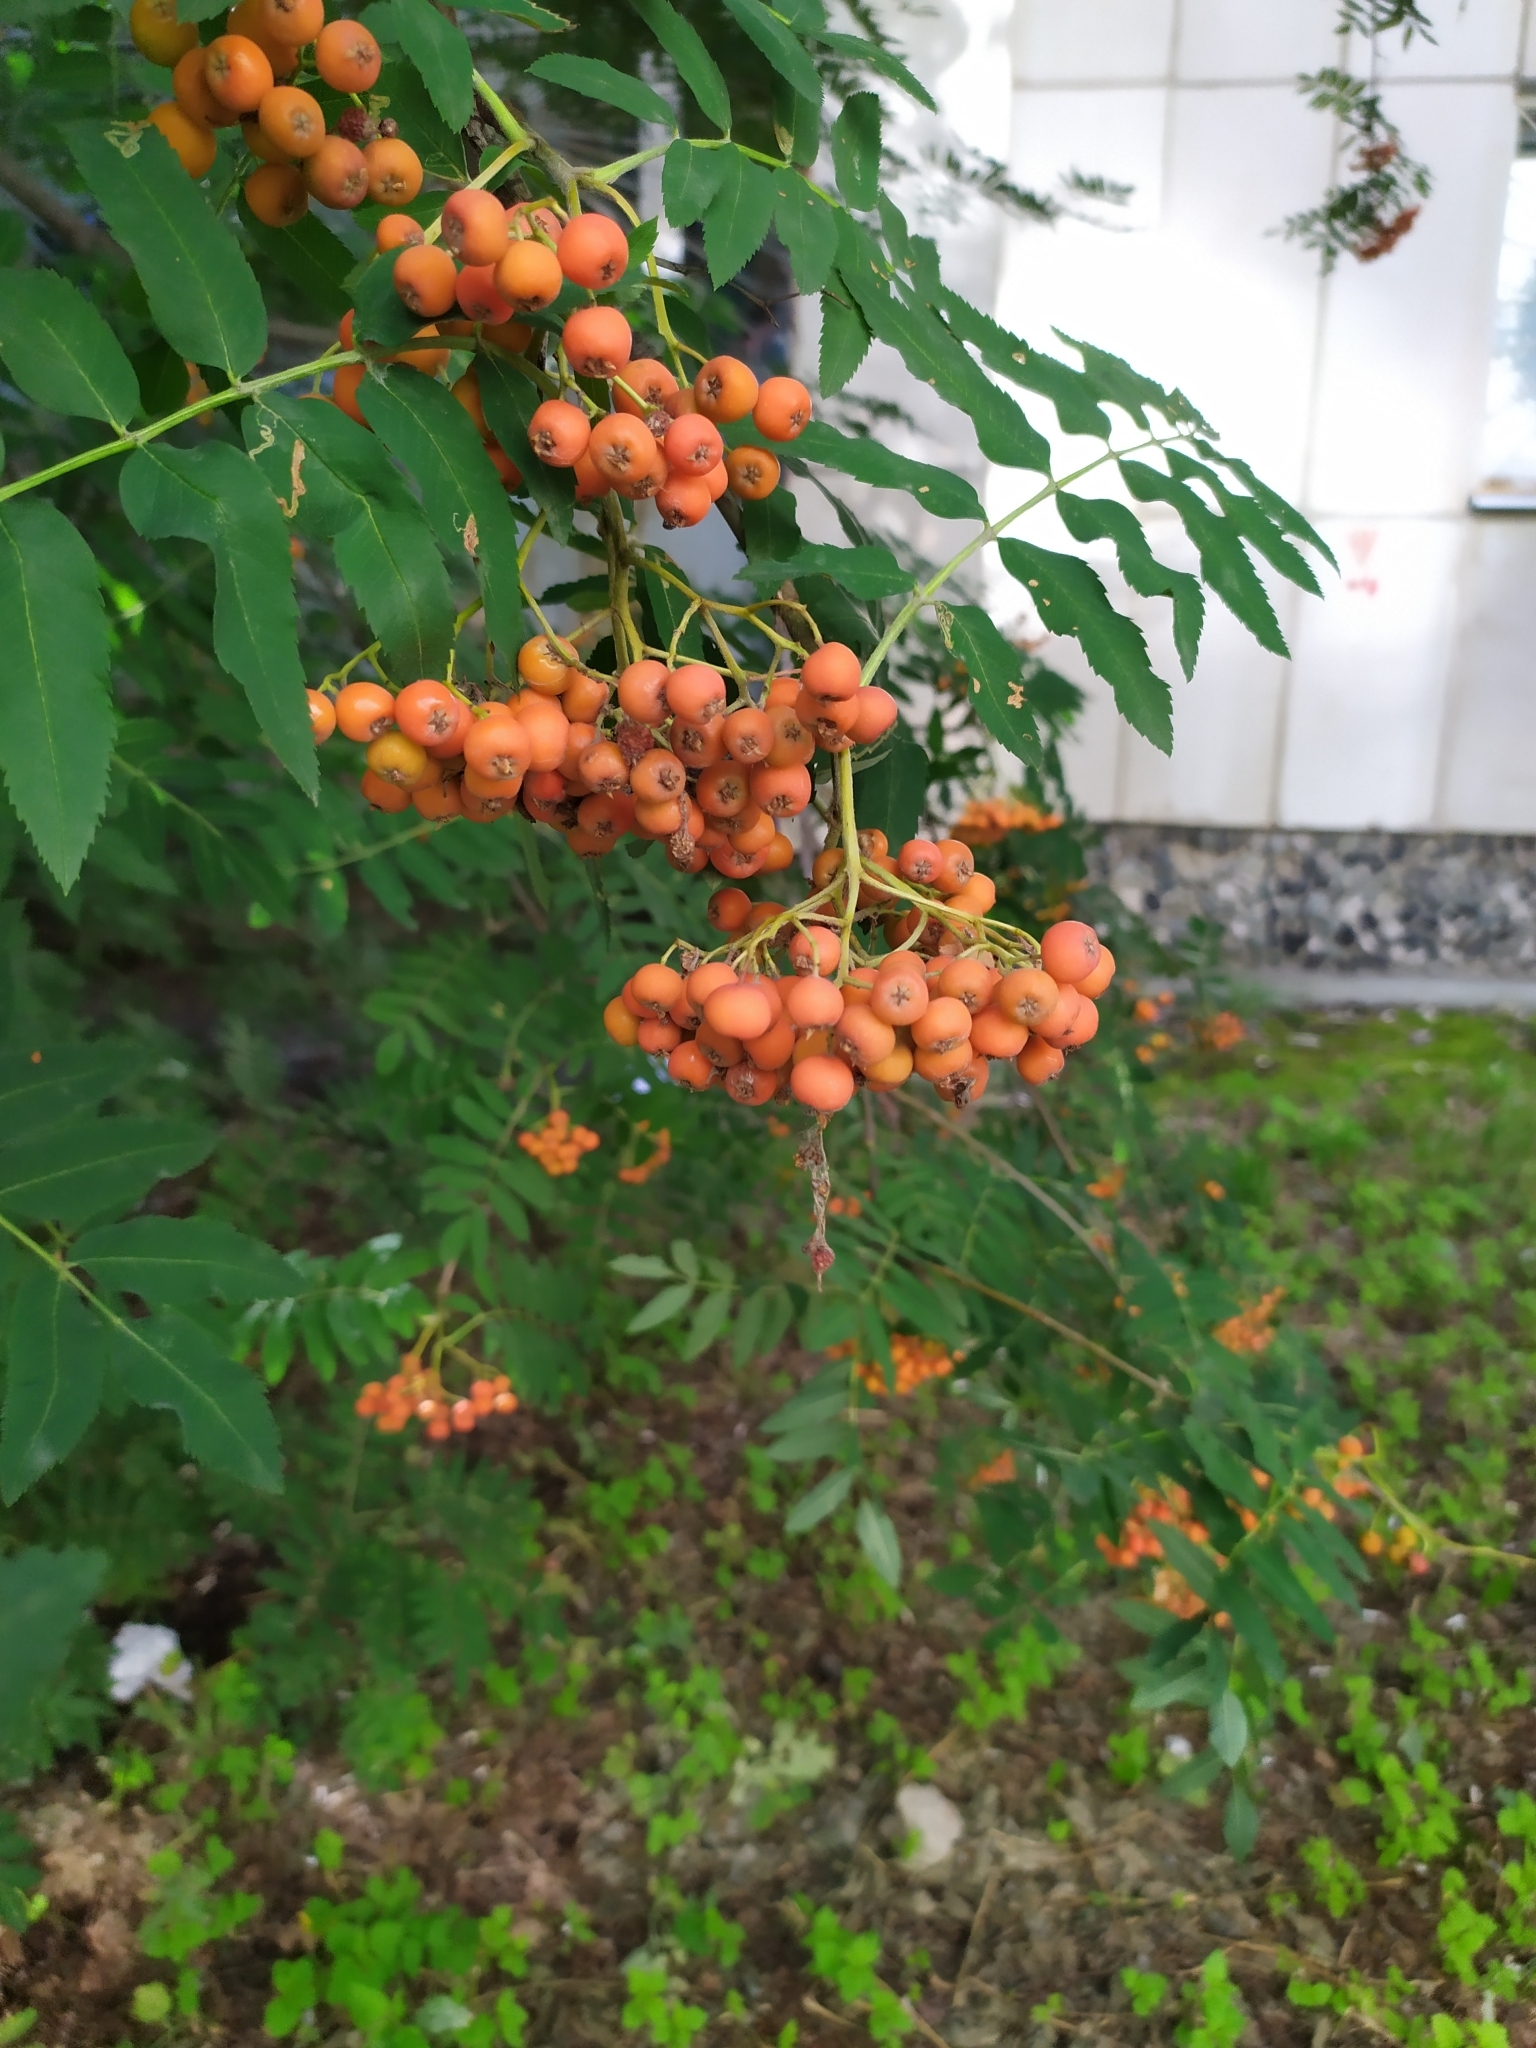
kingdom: Plantae
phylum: Tracheophyta
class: Magnoliopsida
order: Rosales
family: Rosaceae
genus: Sorbus
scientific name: Sorbus aucuparia
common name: Rowan
